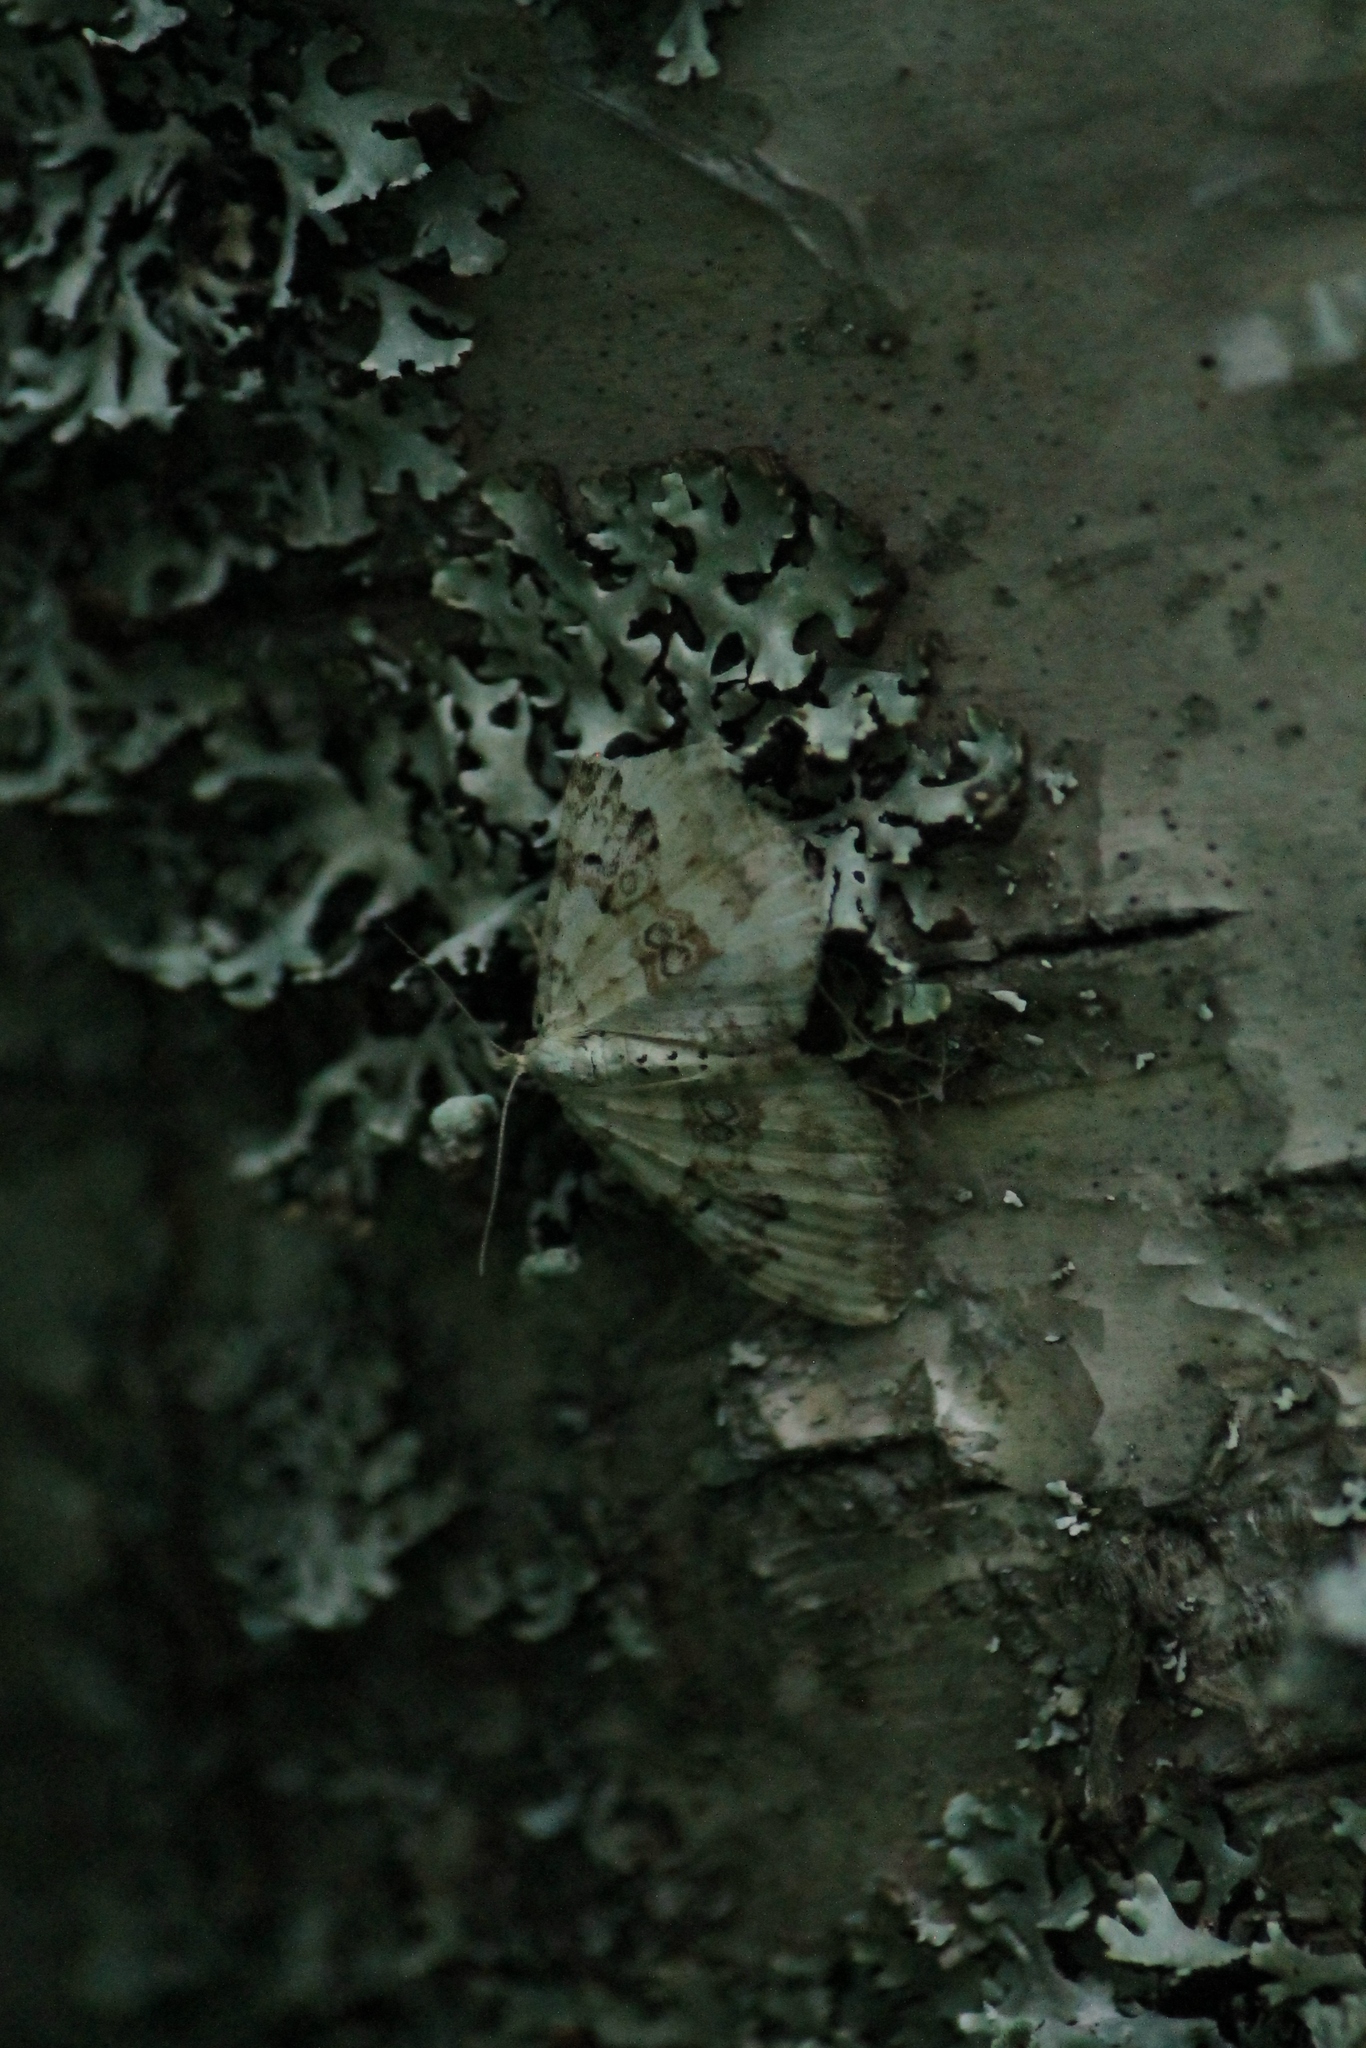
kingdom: Animalia
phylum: Arthropoda
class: Insecta
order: Lepidoptera
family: Geometridae
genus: Xanthorhoe
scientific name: Xanthorhoe montanata
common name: Silver-ground carpet
